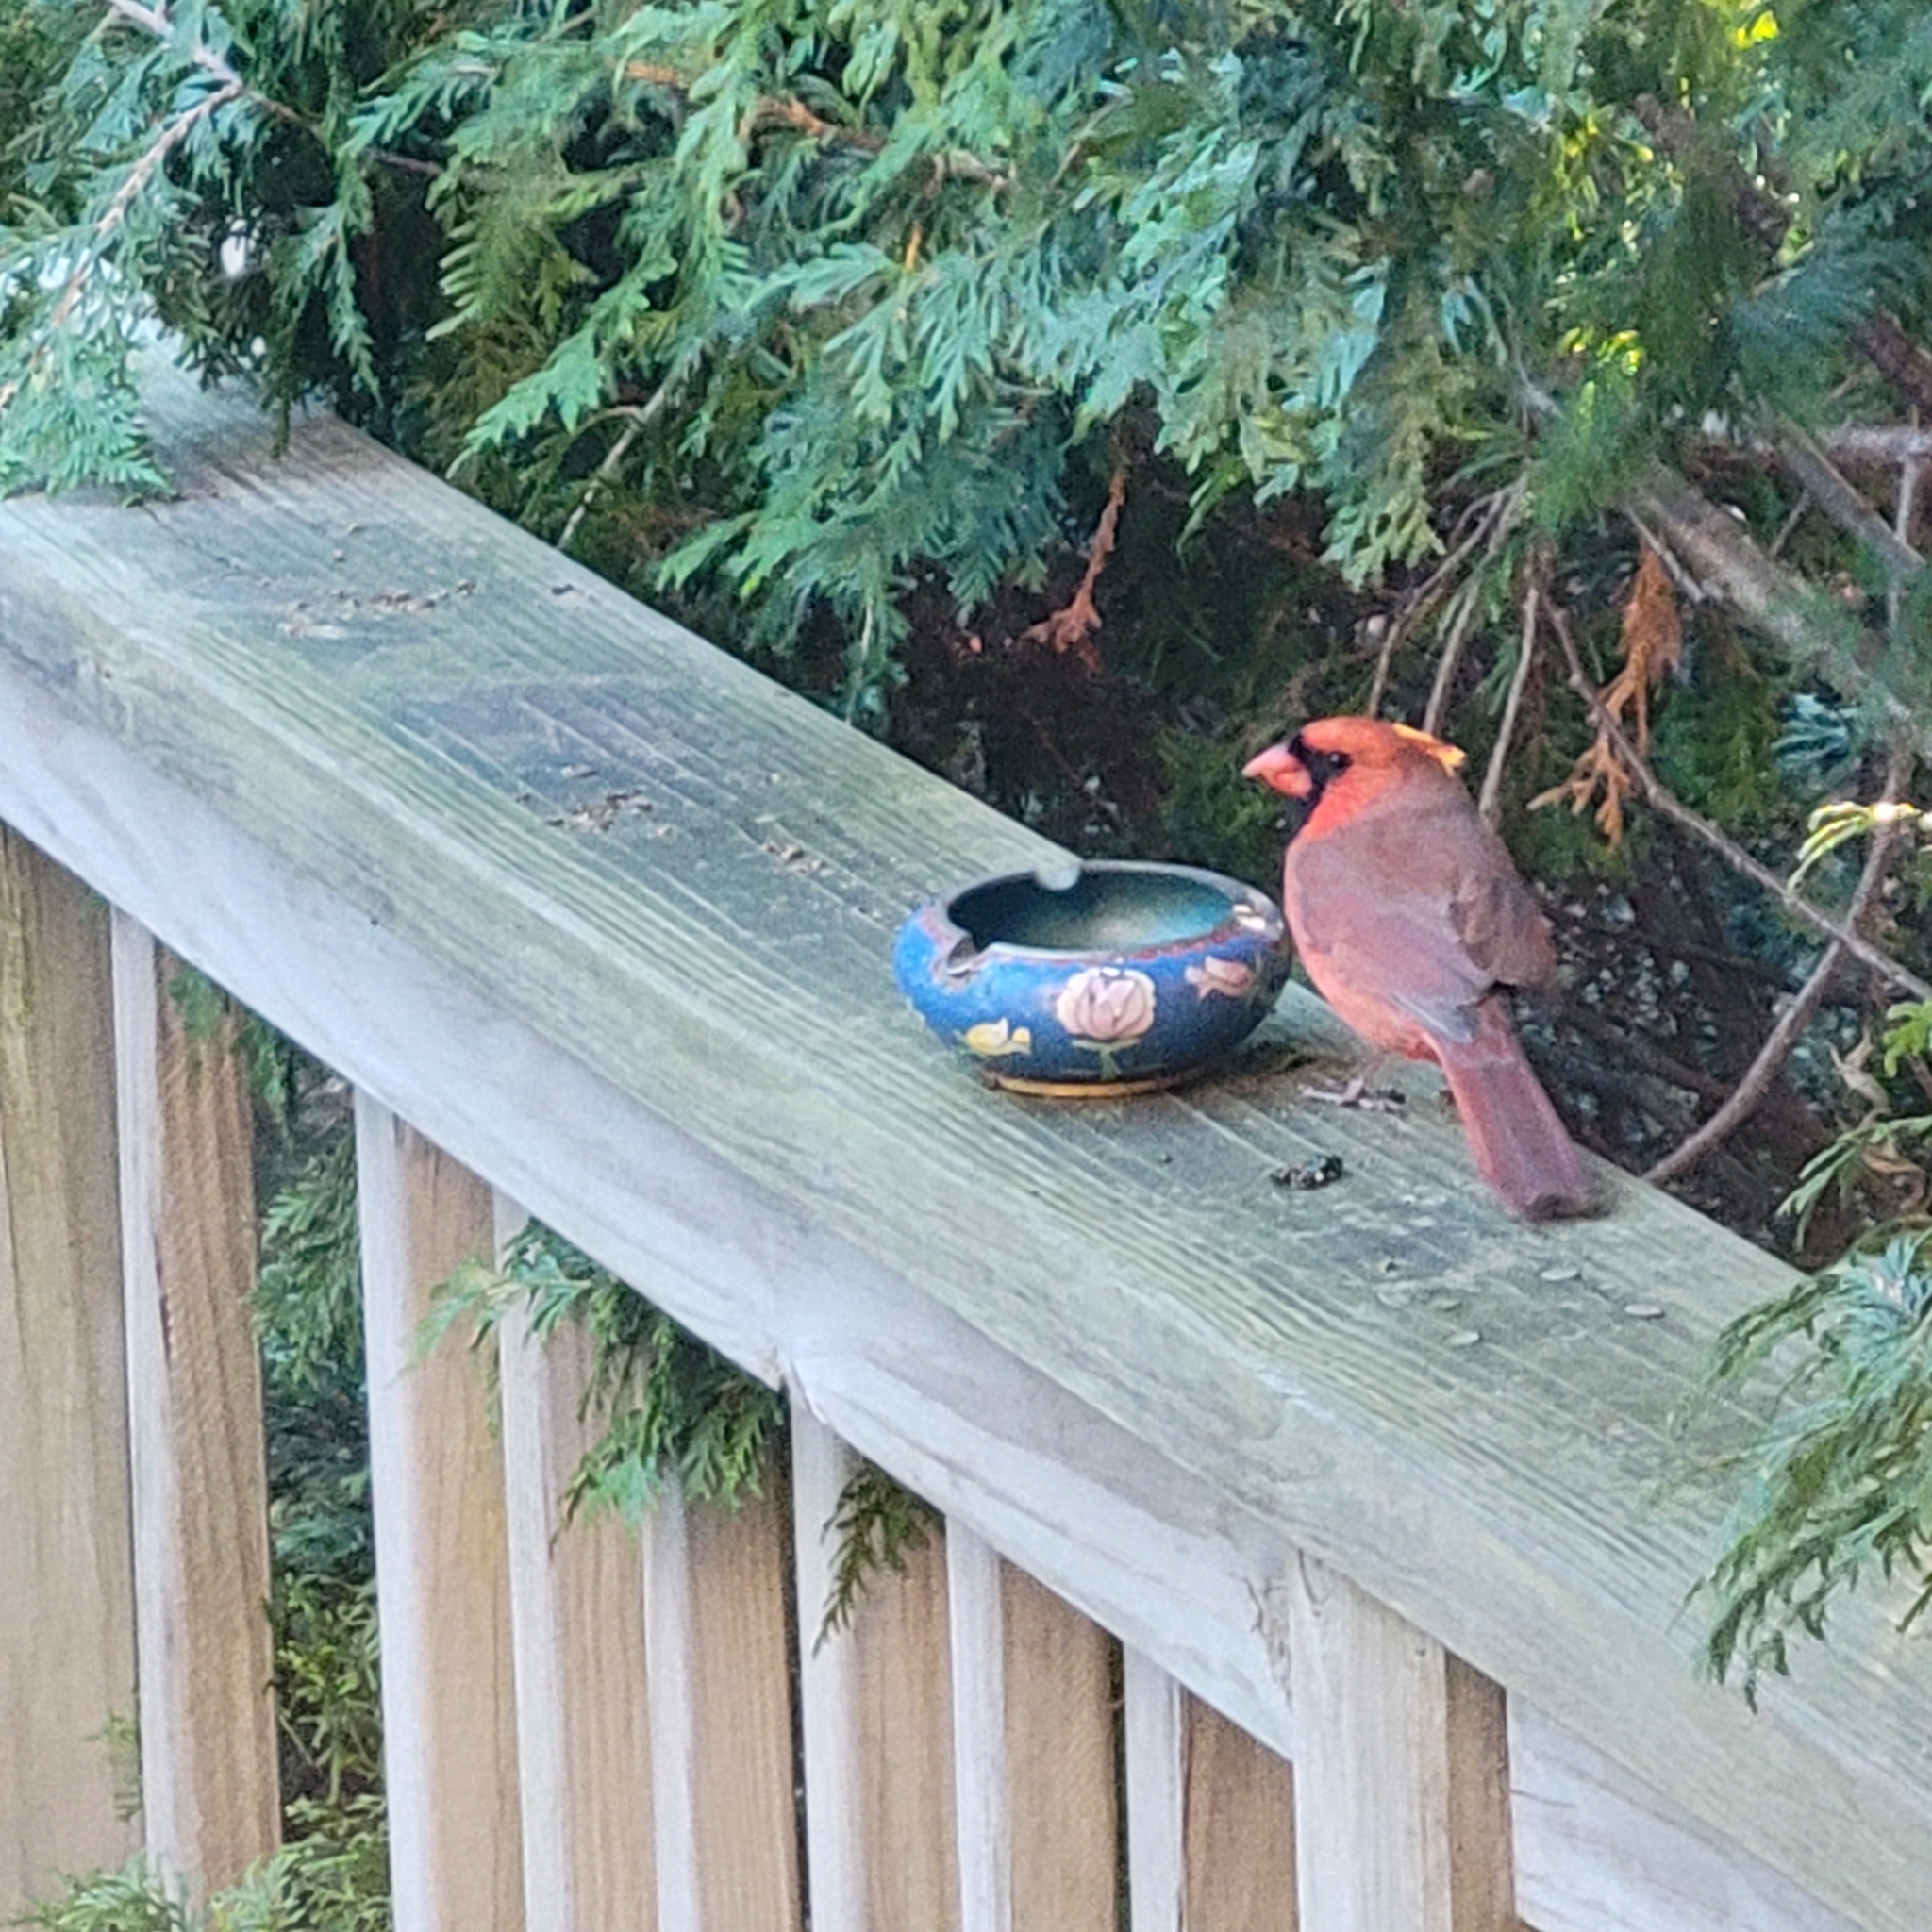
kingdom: Animalia
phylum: Chordata
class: Aves
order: Passeriformes
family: Cardinalidae
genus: Cardinalis
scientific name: Cardinalis cardinalis
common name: Northern cardinal
